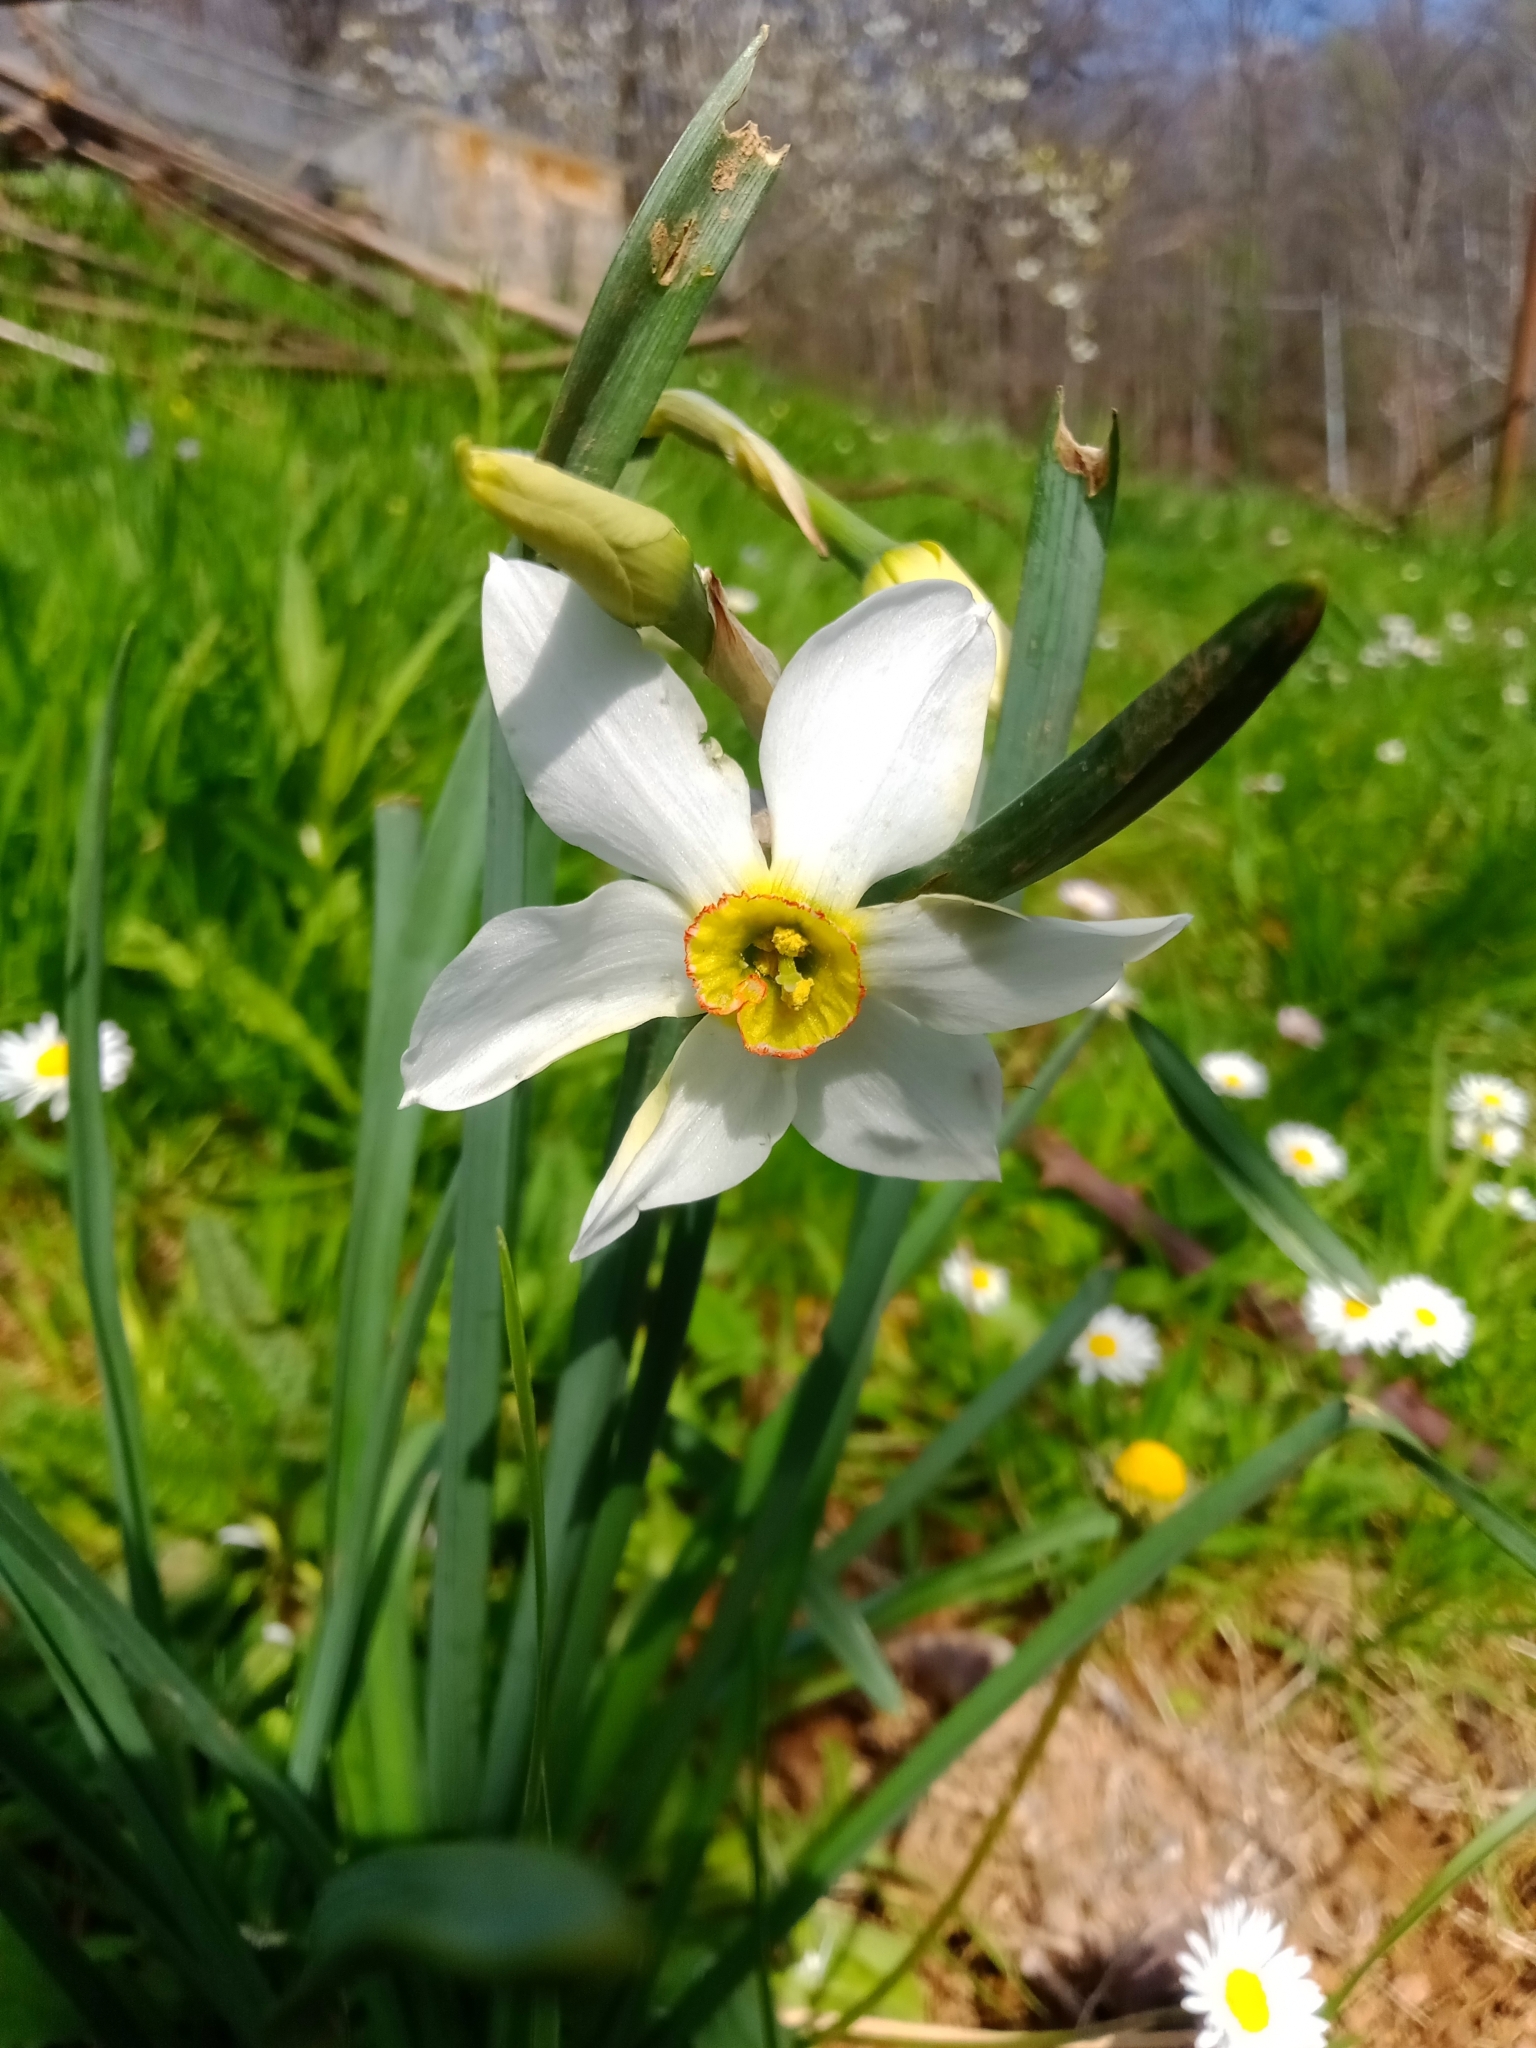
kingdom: Plantae
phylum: Tracheophyta
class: Liliopsida
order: Asparagales
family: Amaryllidaceae
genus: Narcissus
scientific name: Narcissus poeticus
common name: Pheasant's-eye daffodil
